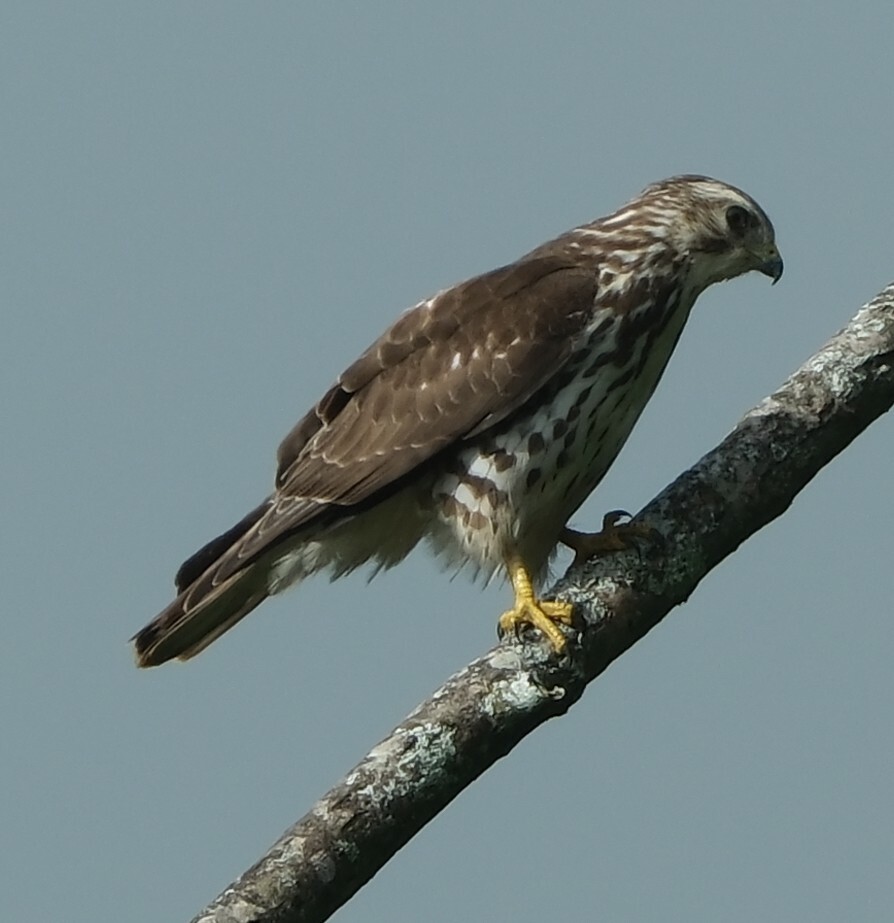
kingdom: Animalia
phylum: Chordata
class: Aves
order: Accipitriformes
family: Accipitridae
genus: Buteo
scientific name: Buteo platypterus
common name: Broad-winged hawk
